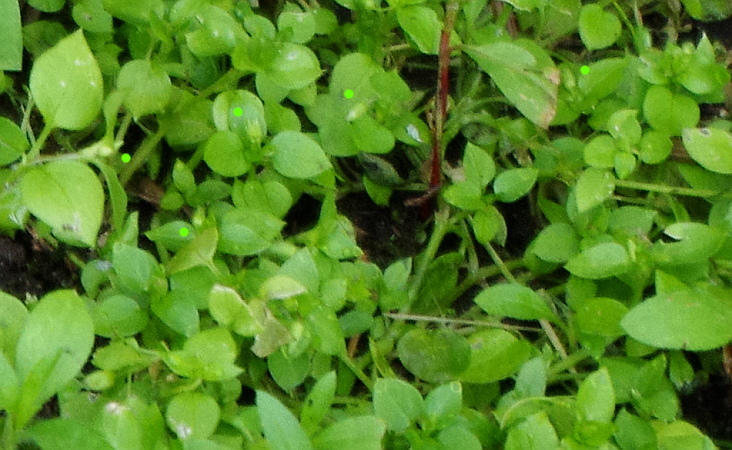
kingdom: Plantae
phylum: Tracheophyta
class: Magnoliopsida
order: Caryophyllales
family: Caryophyllaceae
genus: Stellaria
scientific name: Stellaria media
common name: Common chickweed
